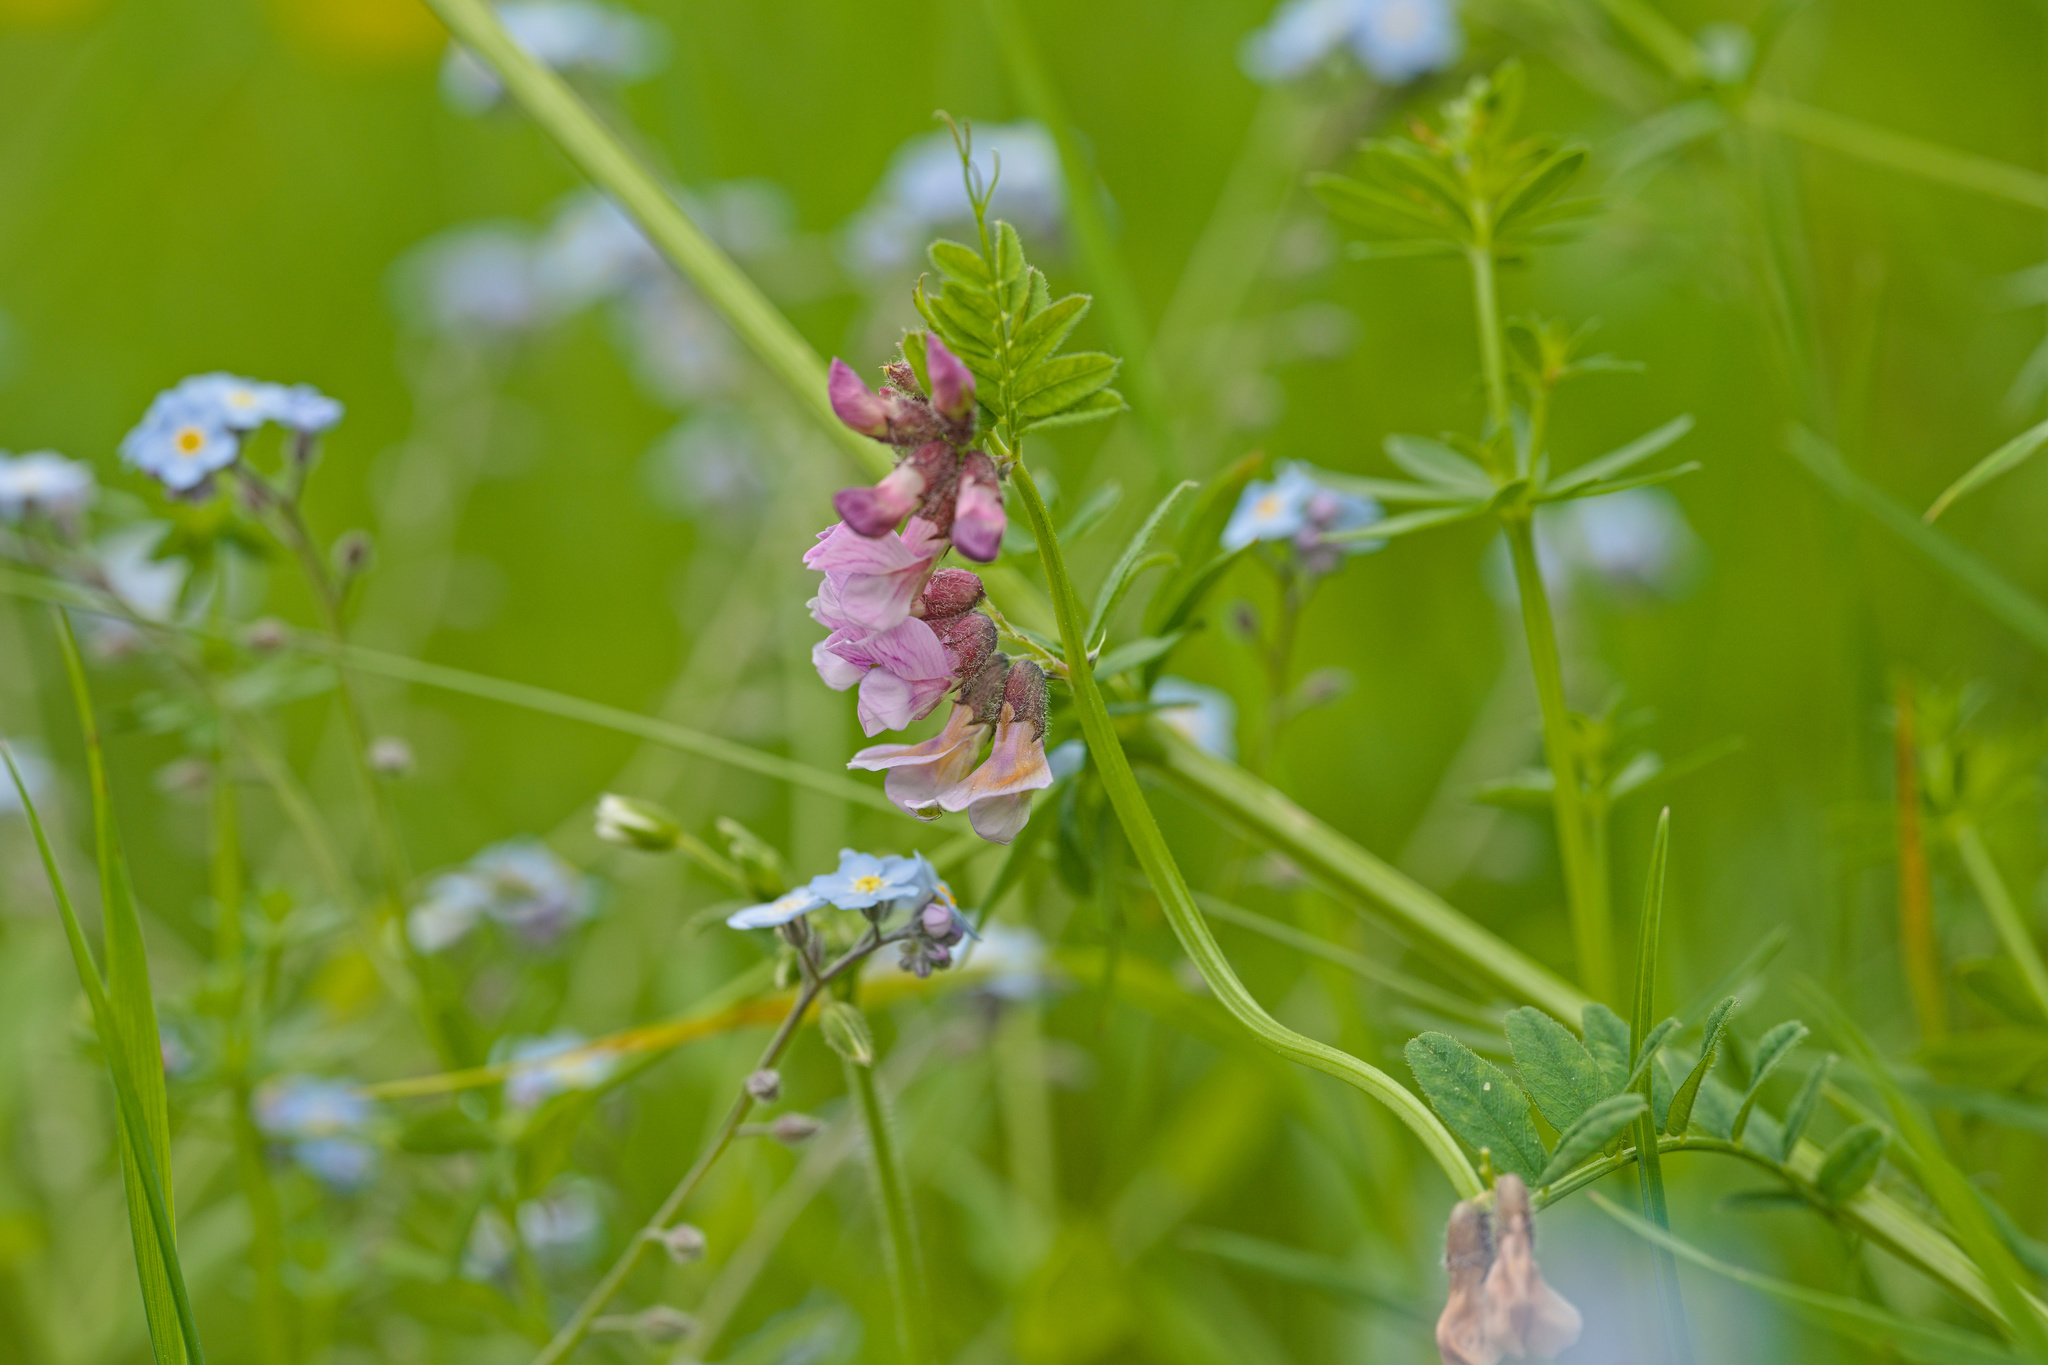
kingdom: Plantae
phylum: Tracheophyta
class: Magnoliopsida
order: Fabales
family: Fabaceae
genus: Vicia
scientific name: Vicia sepium
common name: Bush vetch
